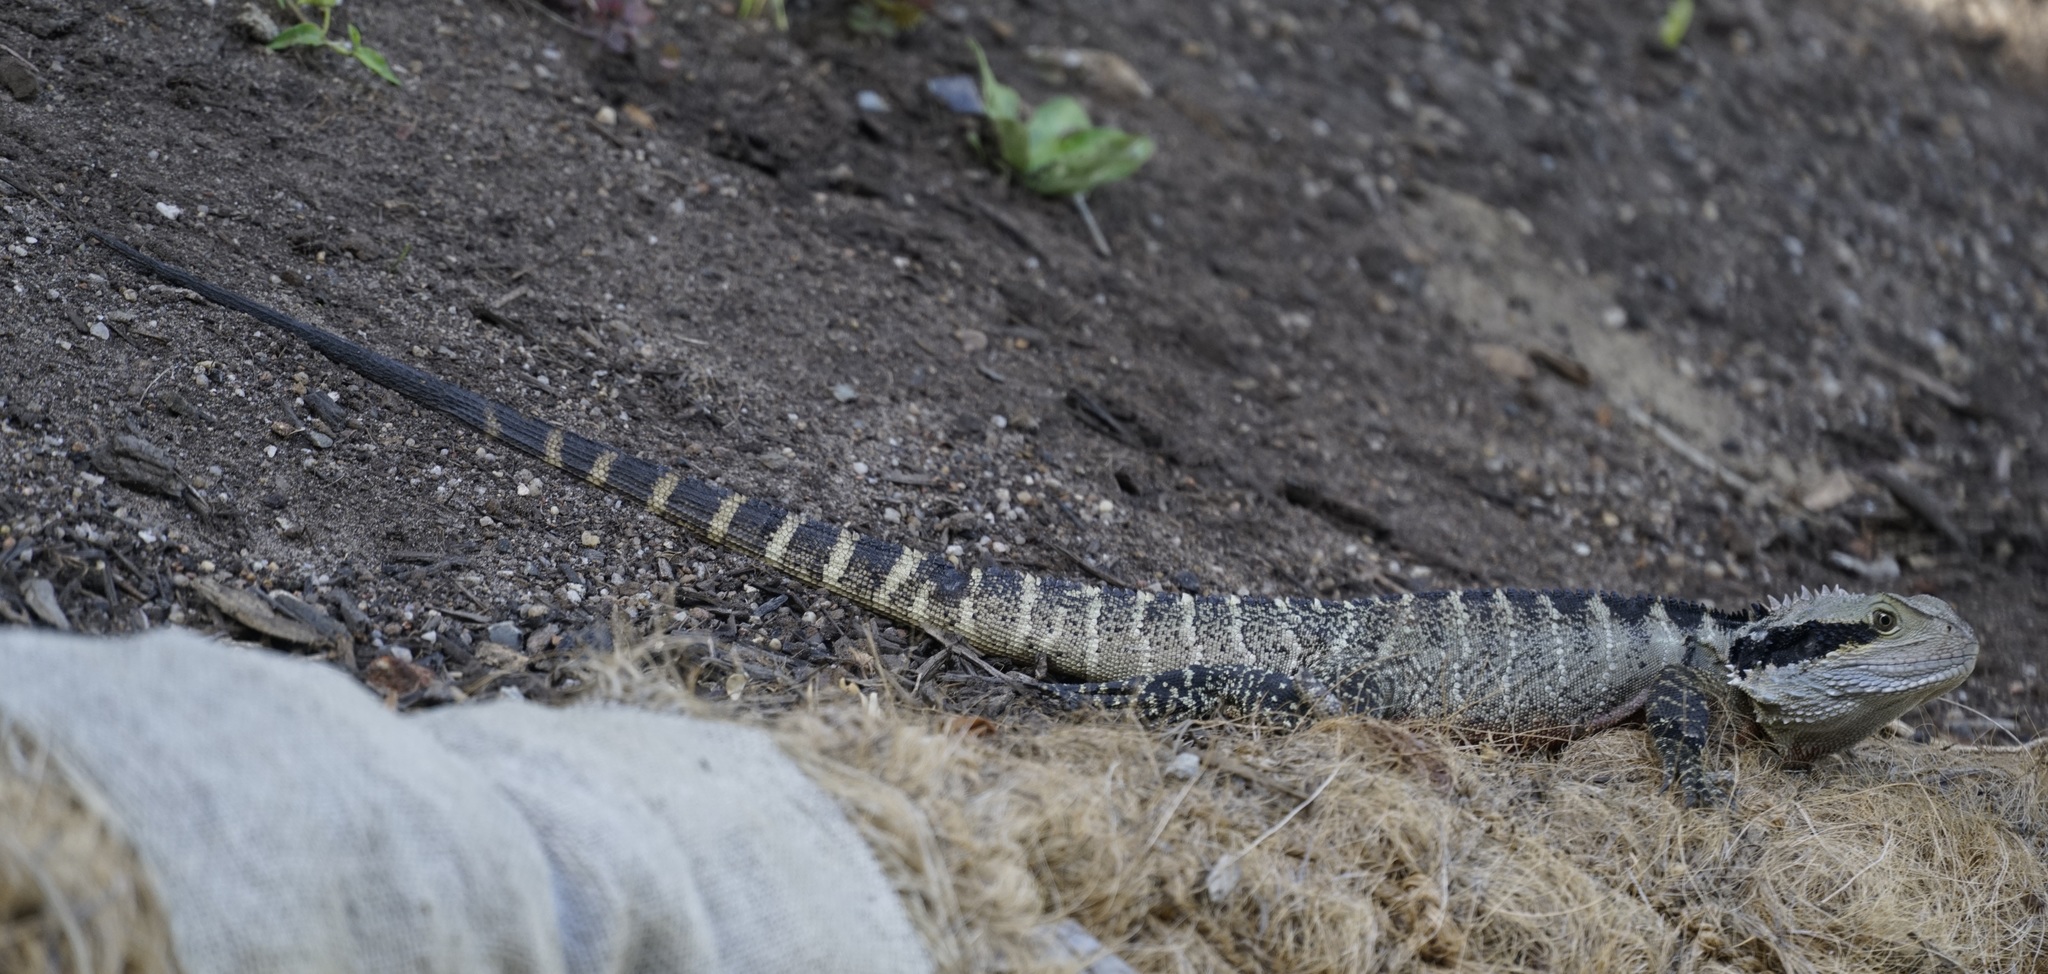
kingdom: Animalia
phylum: Chordata
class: Squamata
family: Agamidae
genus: Intellagama
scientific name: Intellagama lesueurii
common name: Eastern water dragon
